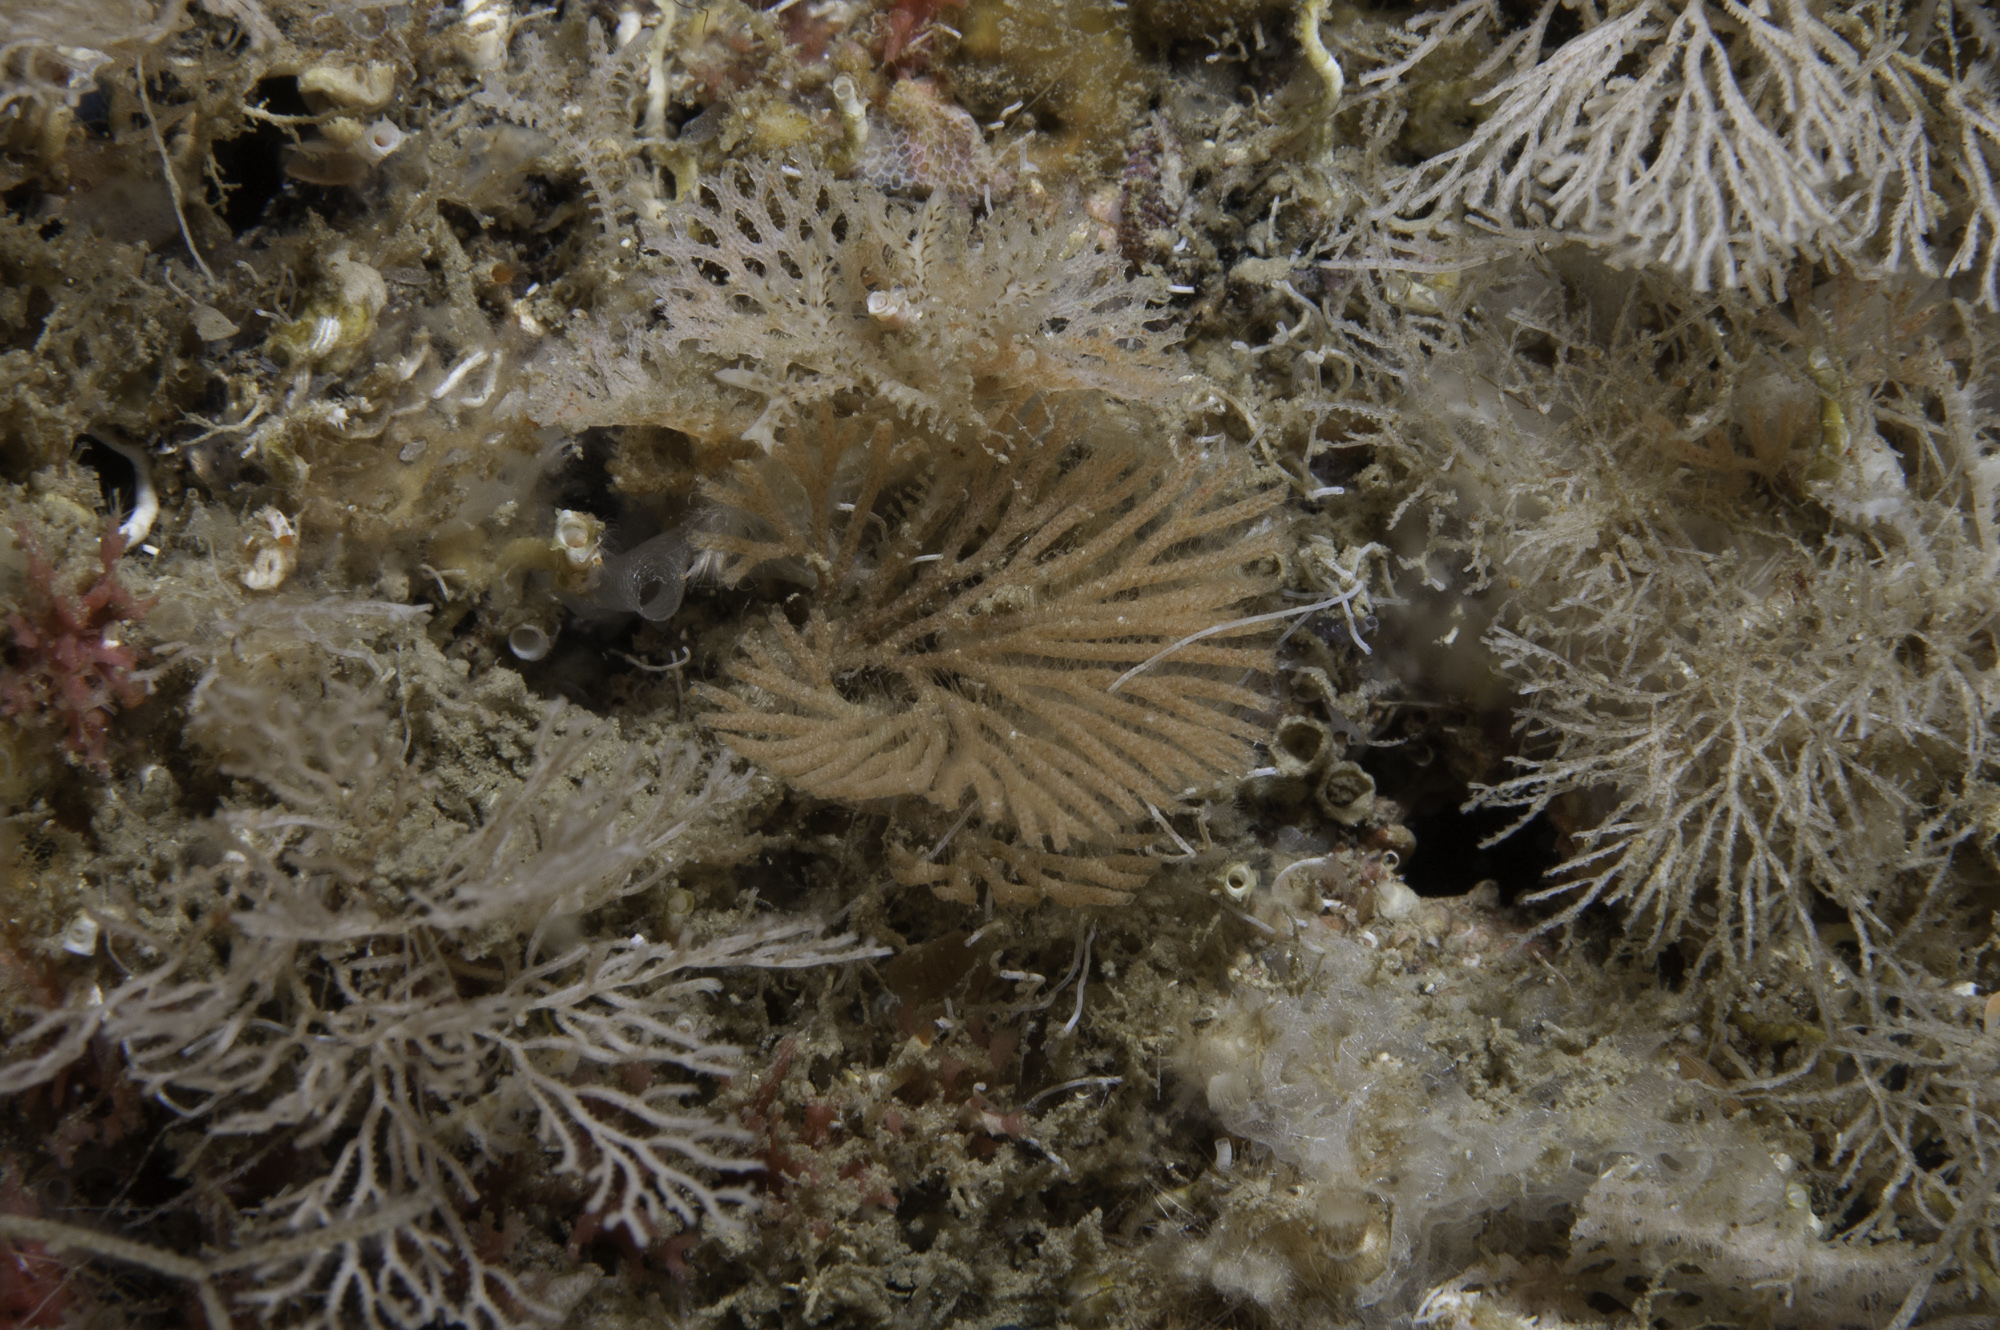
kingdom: Animalia
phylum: Bryozoa
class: Gymnolaemata
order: Cheilostomatida
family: Candidae
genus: Caberea
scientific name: Caberea boryi
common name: Bryozoan
